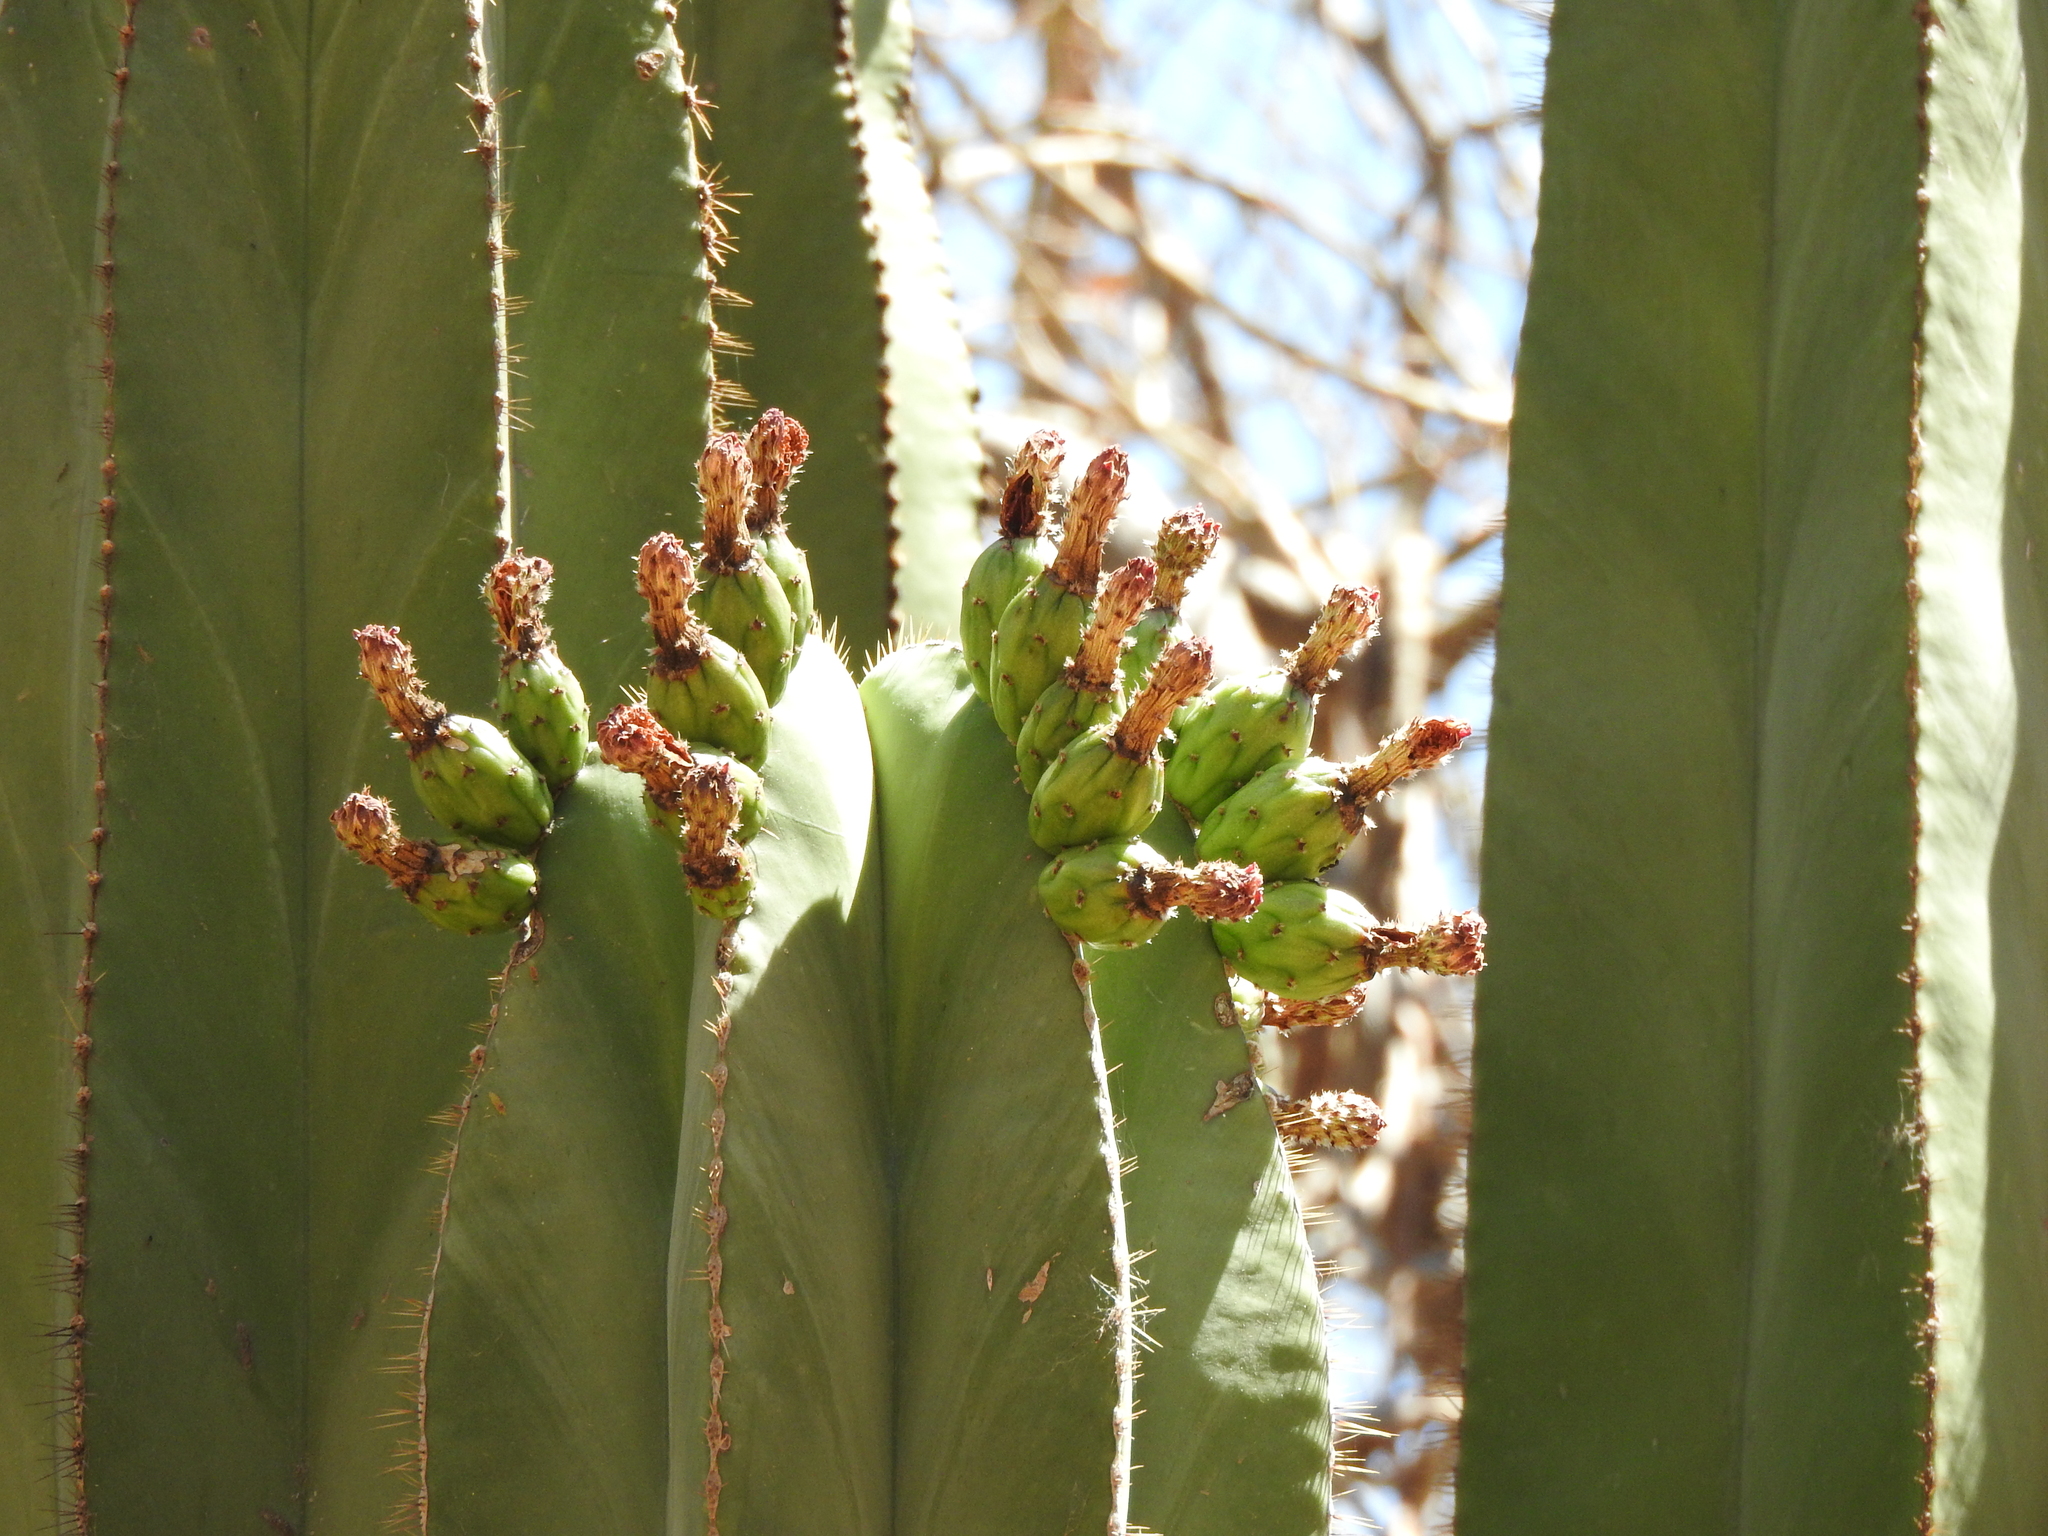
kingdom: Plantae
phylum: Tracheophyta
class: Magnoliopsida
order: Caryophyllales
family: Cactaceae
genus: Stenocereus
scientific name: Stenocereus dumortieri
